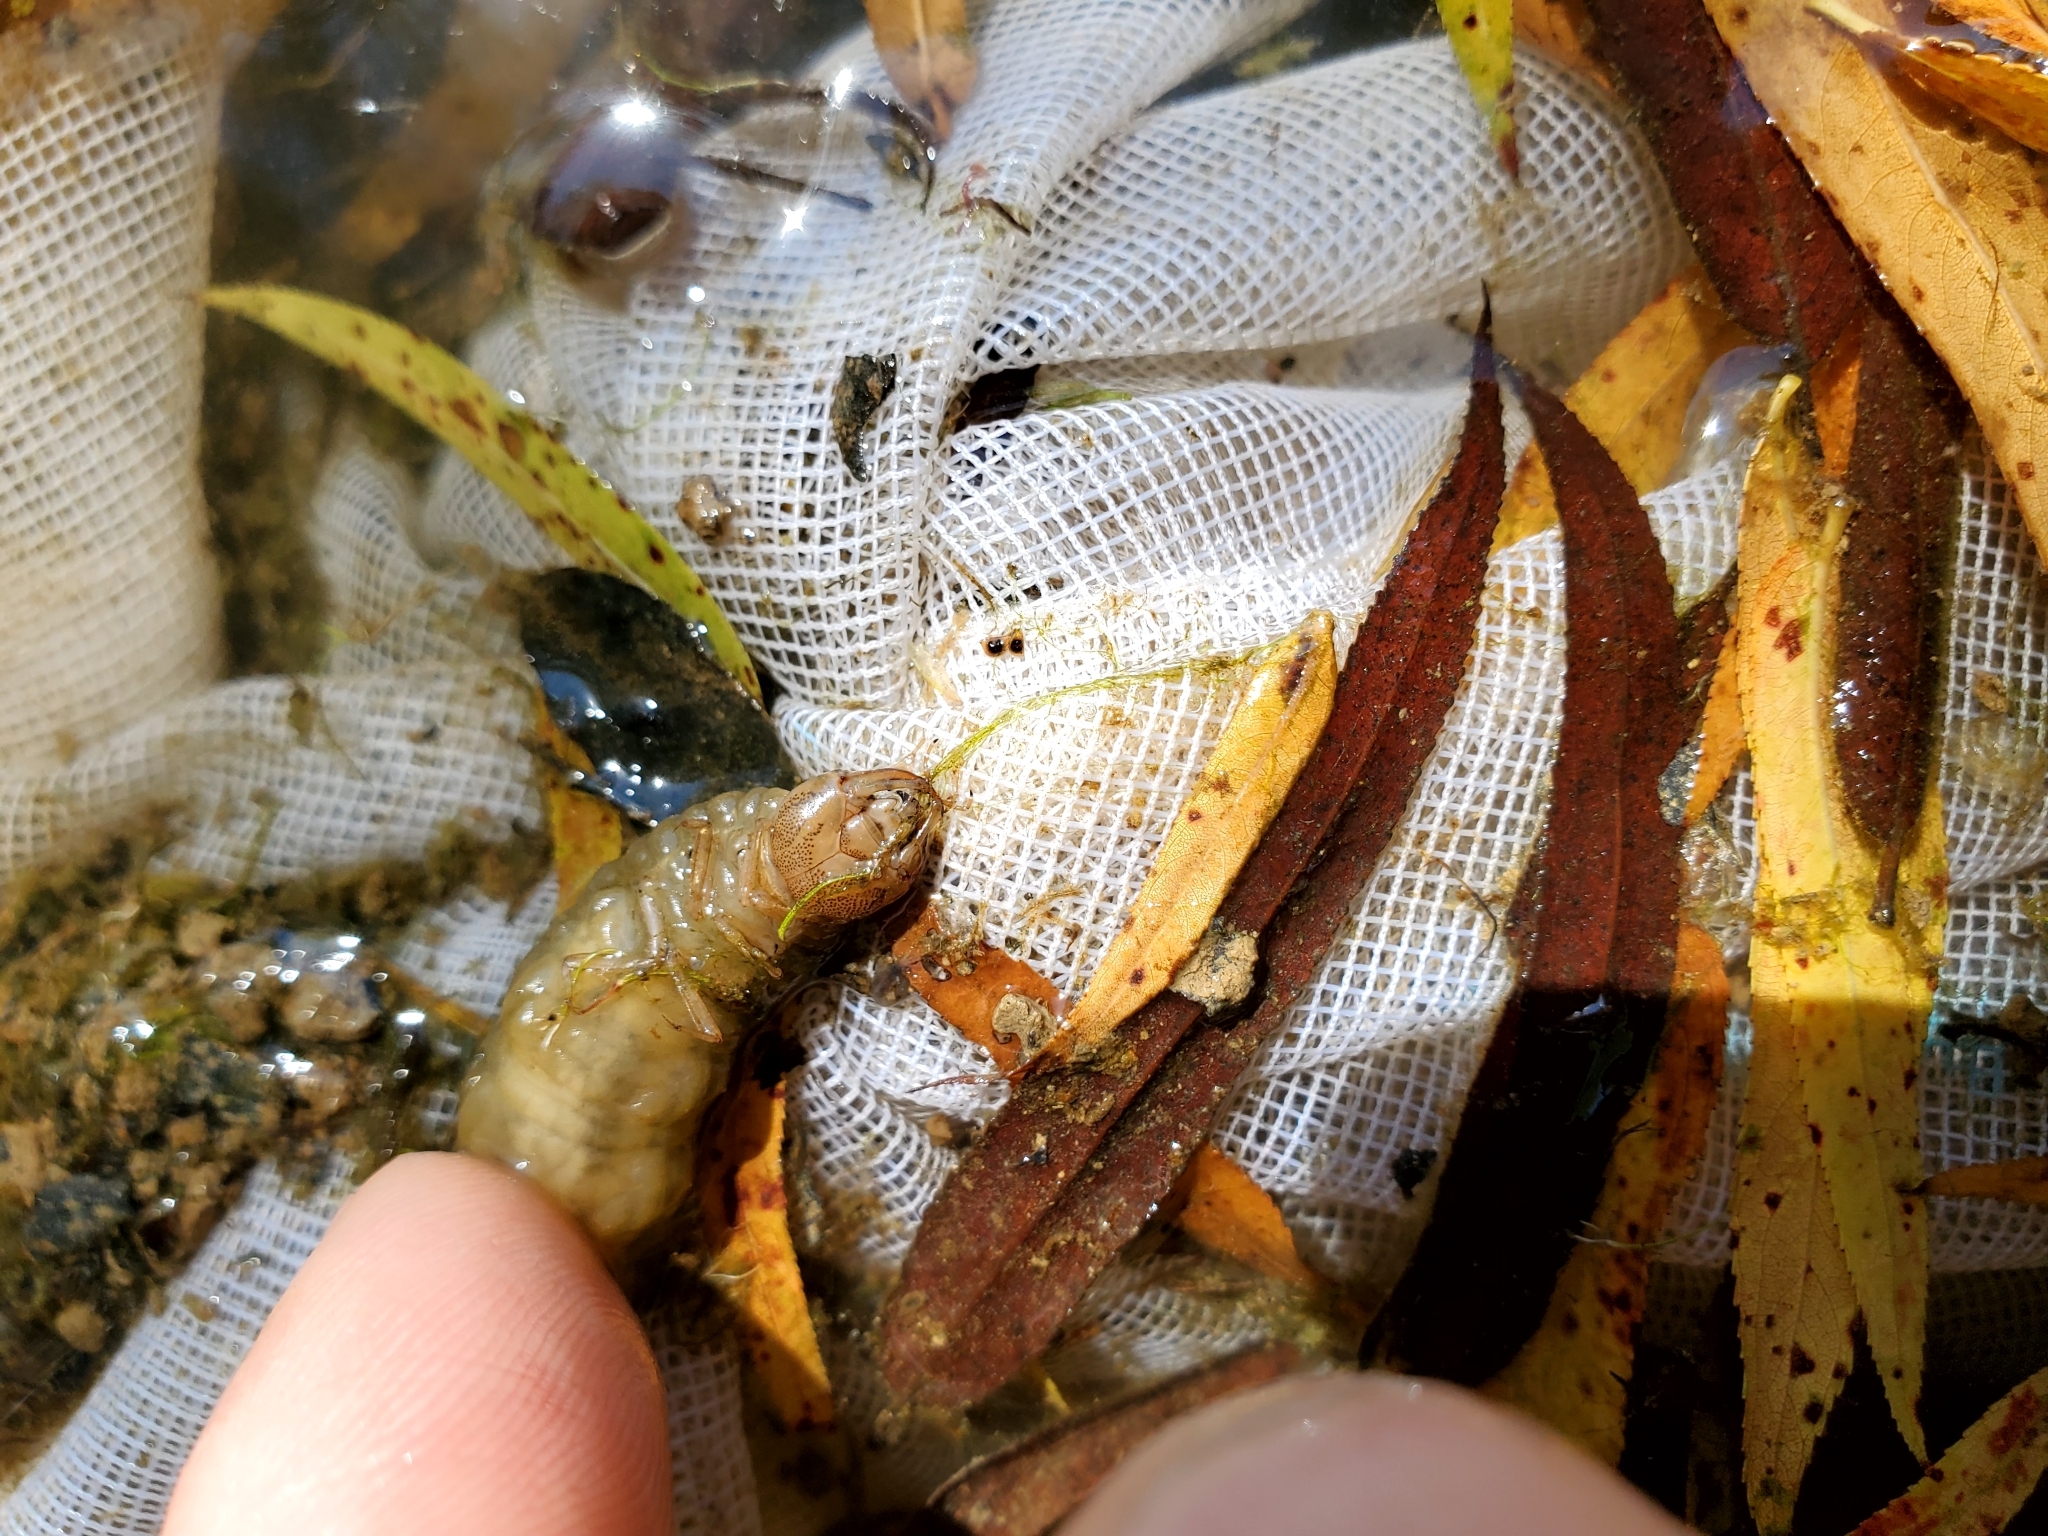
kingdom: Animalia
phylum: Arthropoda
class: Insecta
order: Coleoptera
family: Hydrophilidae
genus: Hydrophilus
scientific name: Hydrophilus triangularis
